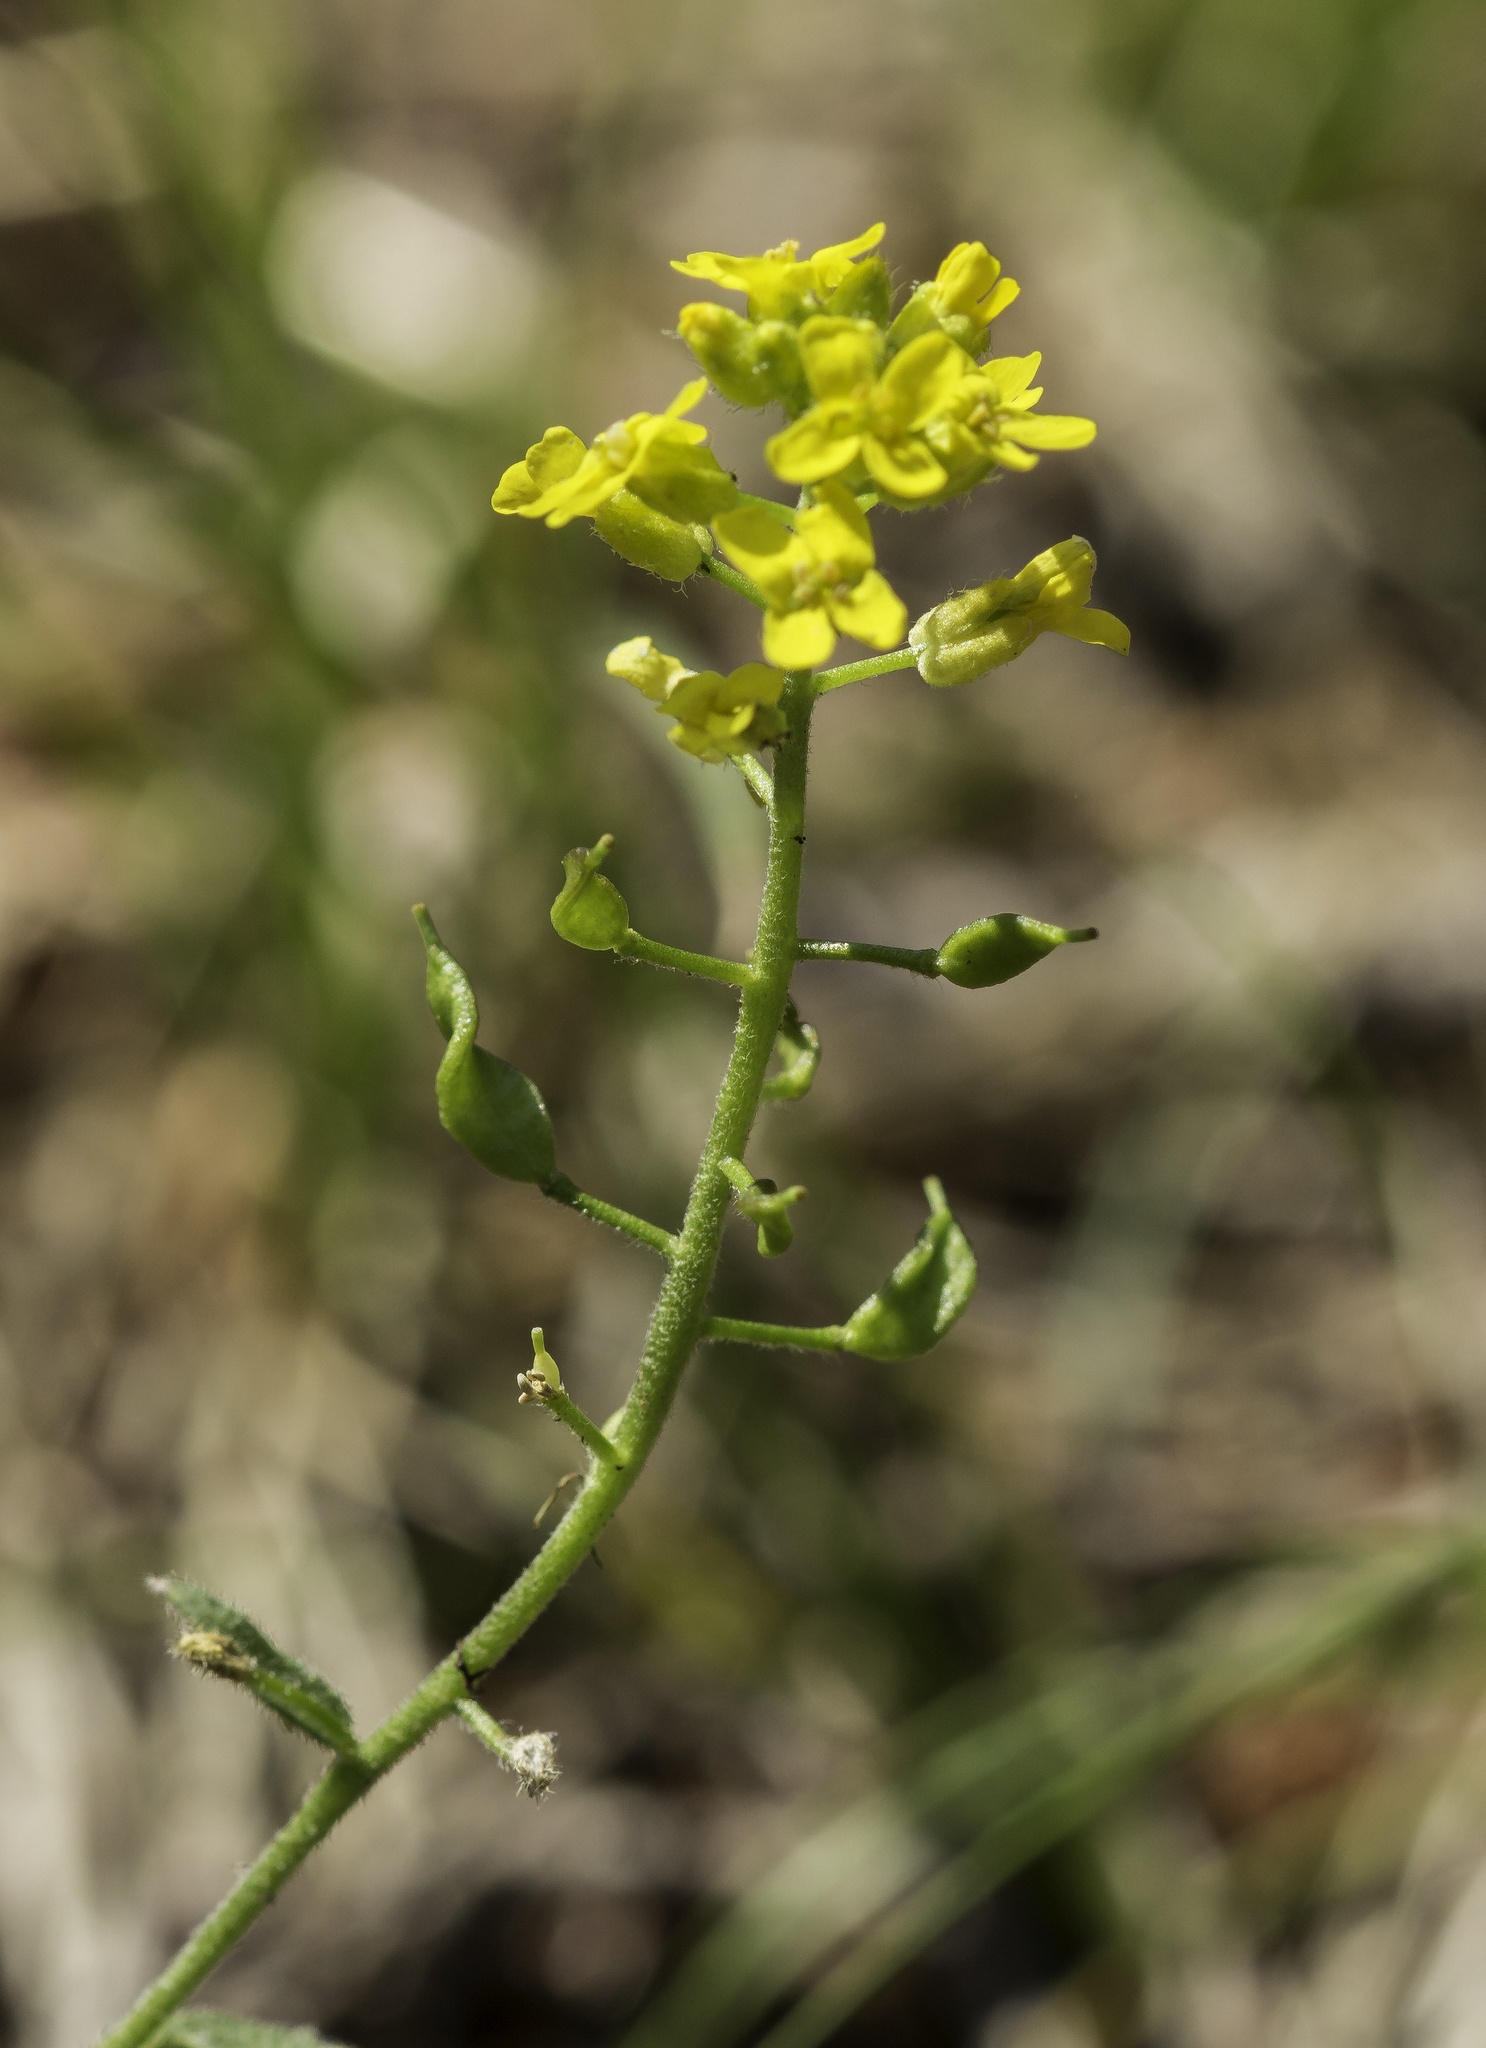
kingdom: Plantae
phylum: Tracheophyta
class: Magnoliopsida
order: Brassicales
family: Brassicaceae
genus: Draba
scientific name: Draba helleriana
